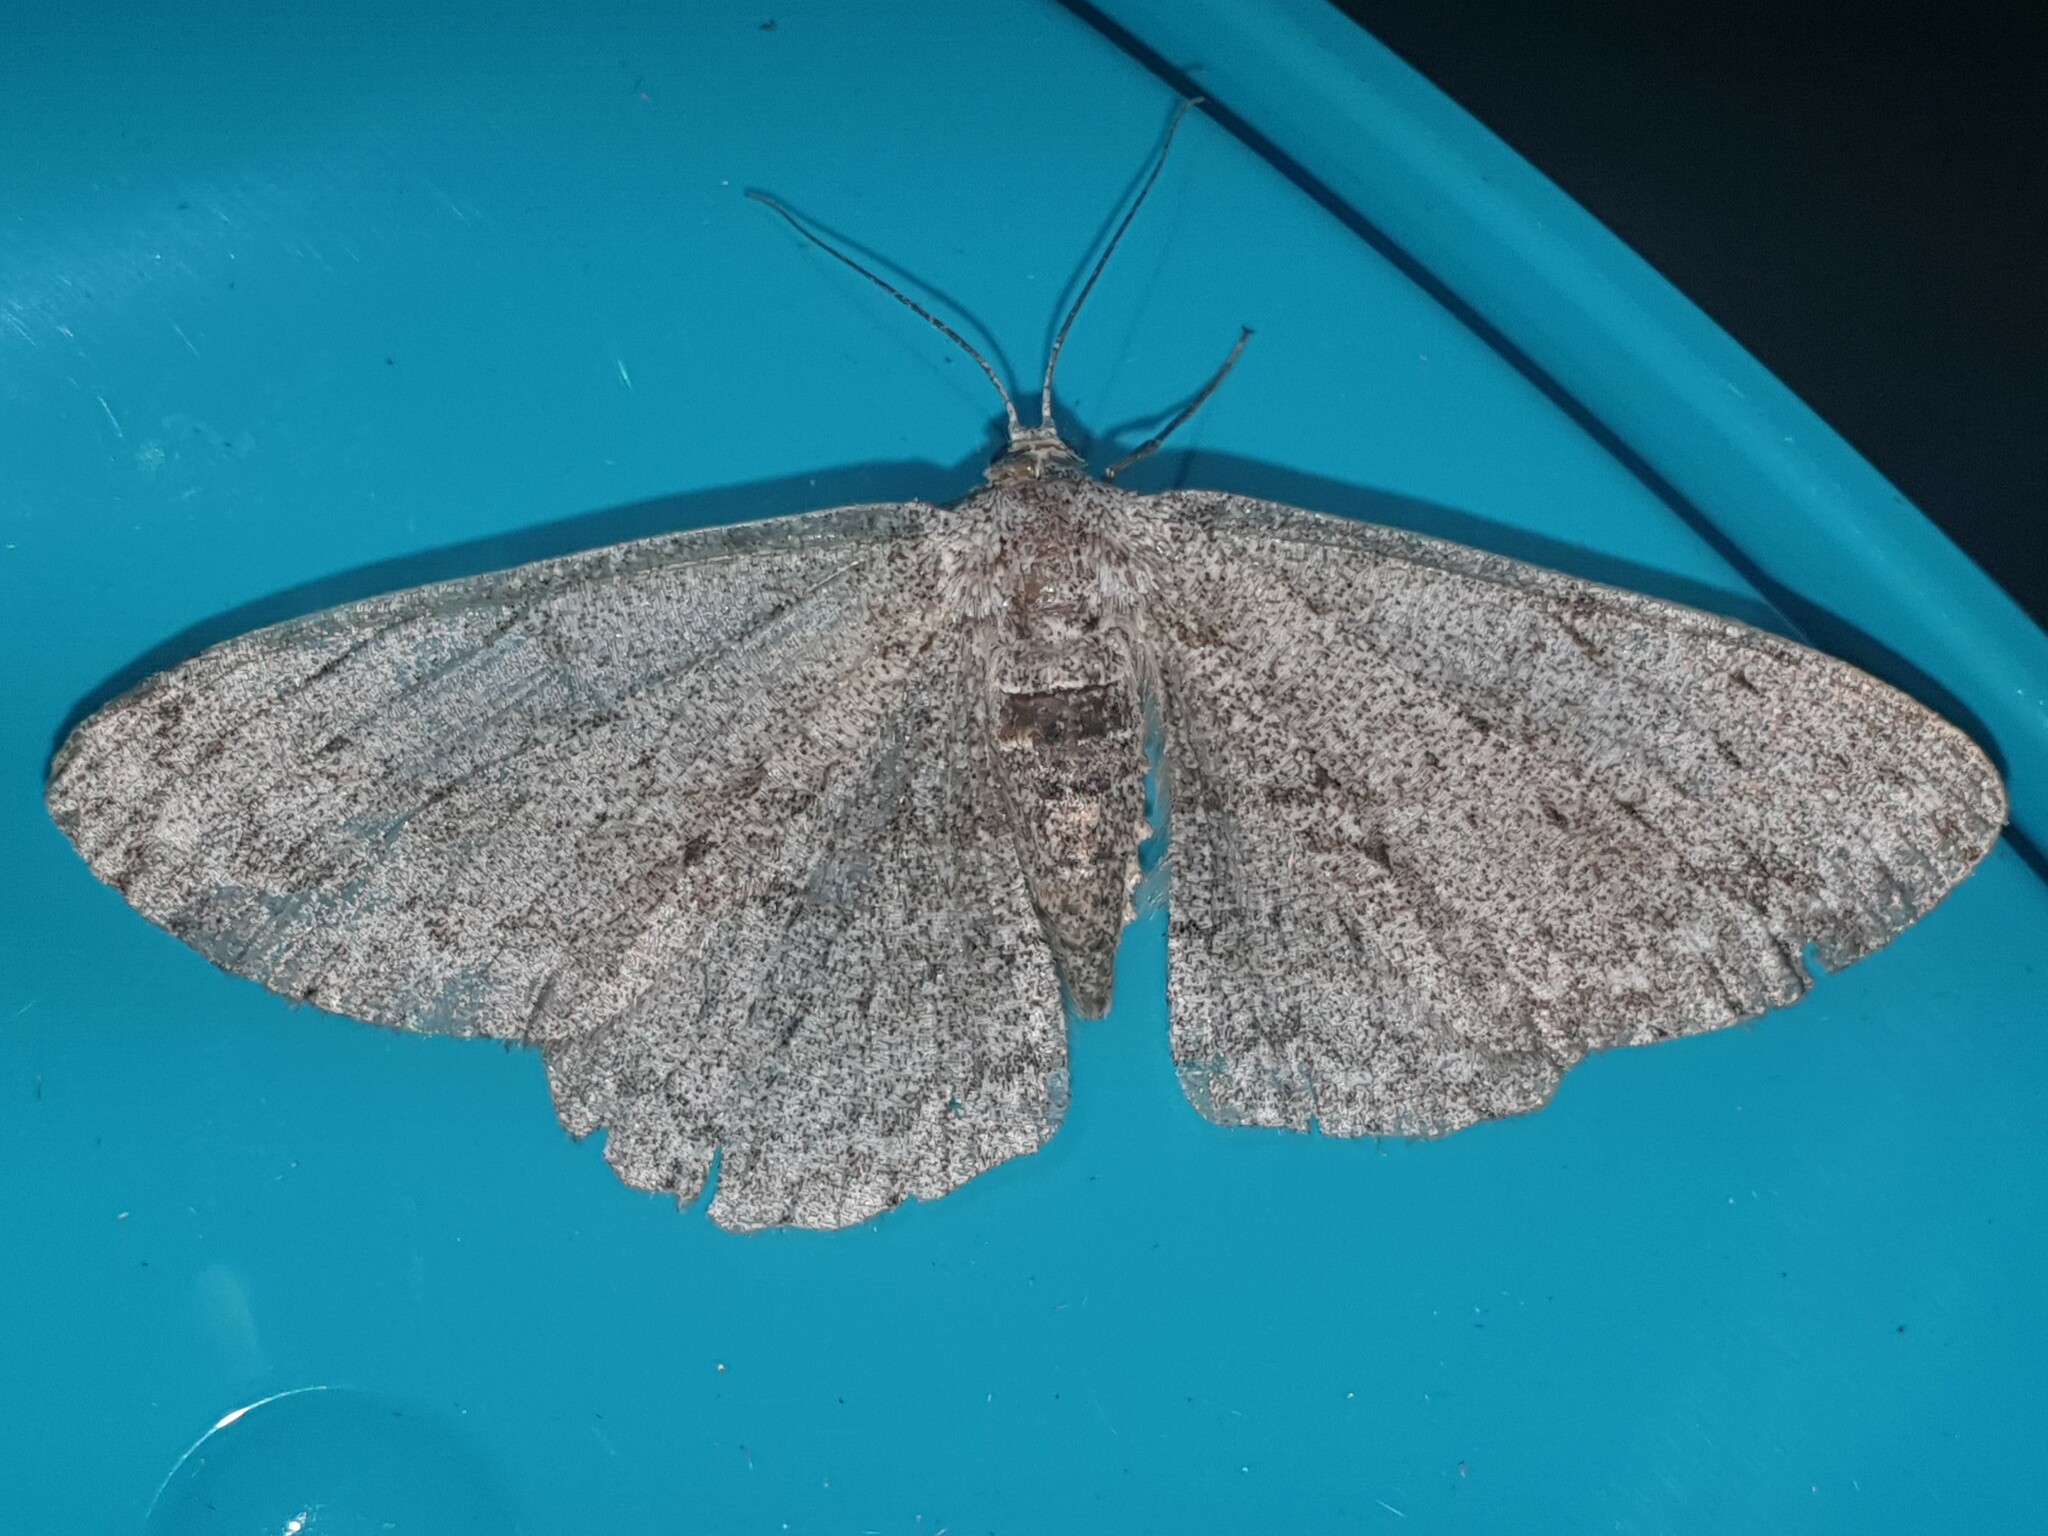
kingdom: Animalia
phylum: Arthropoda
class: Insecta
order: Lepidoptera
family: Geometridae
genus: Hypomecis
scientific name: Hypomecis punctinalis
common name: Pale oak beauty
